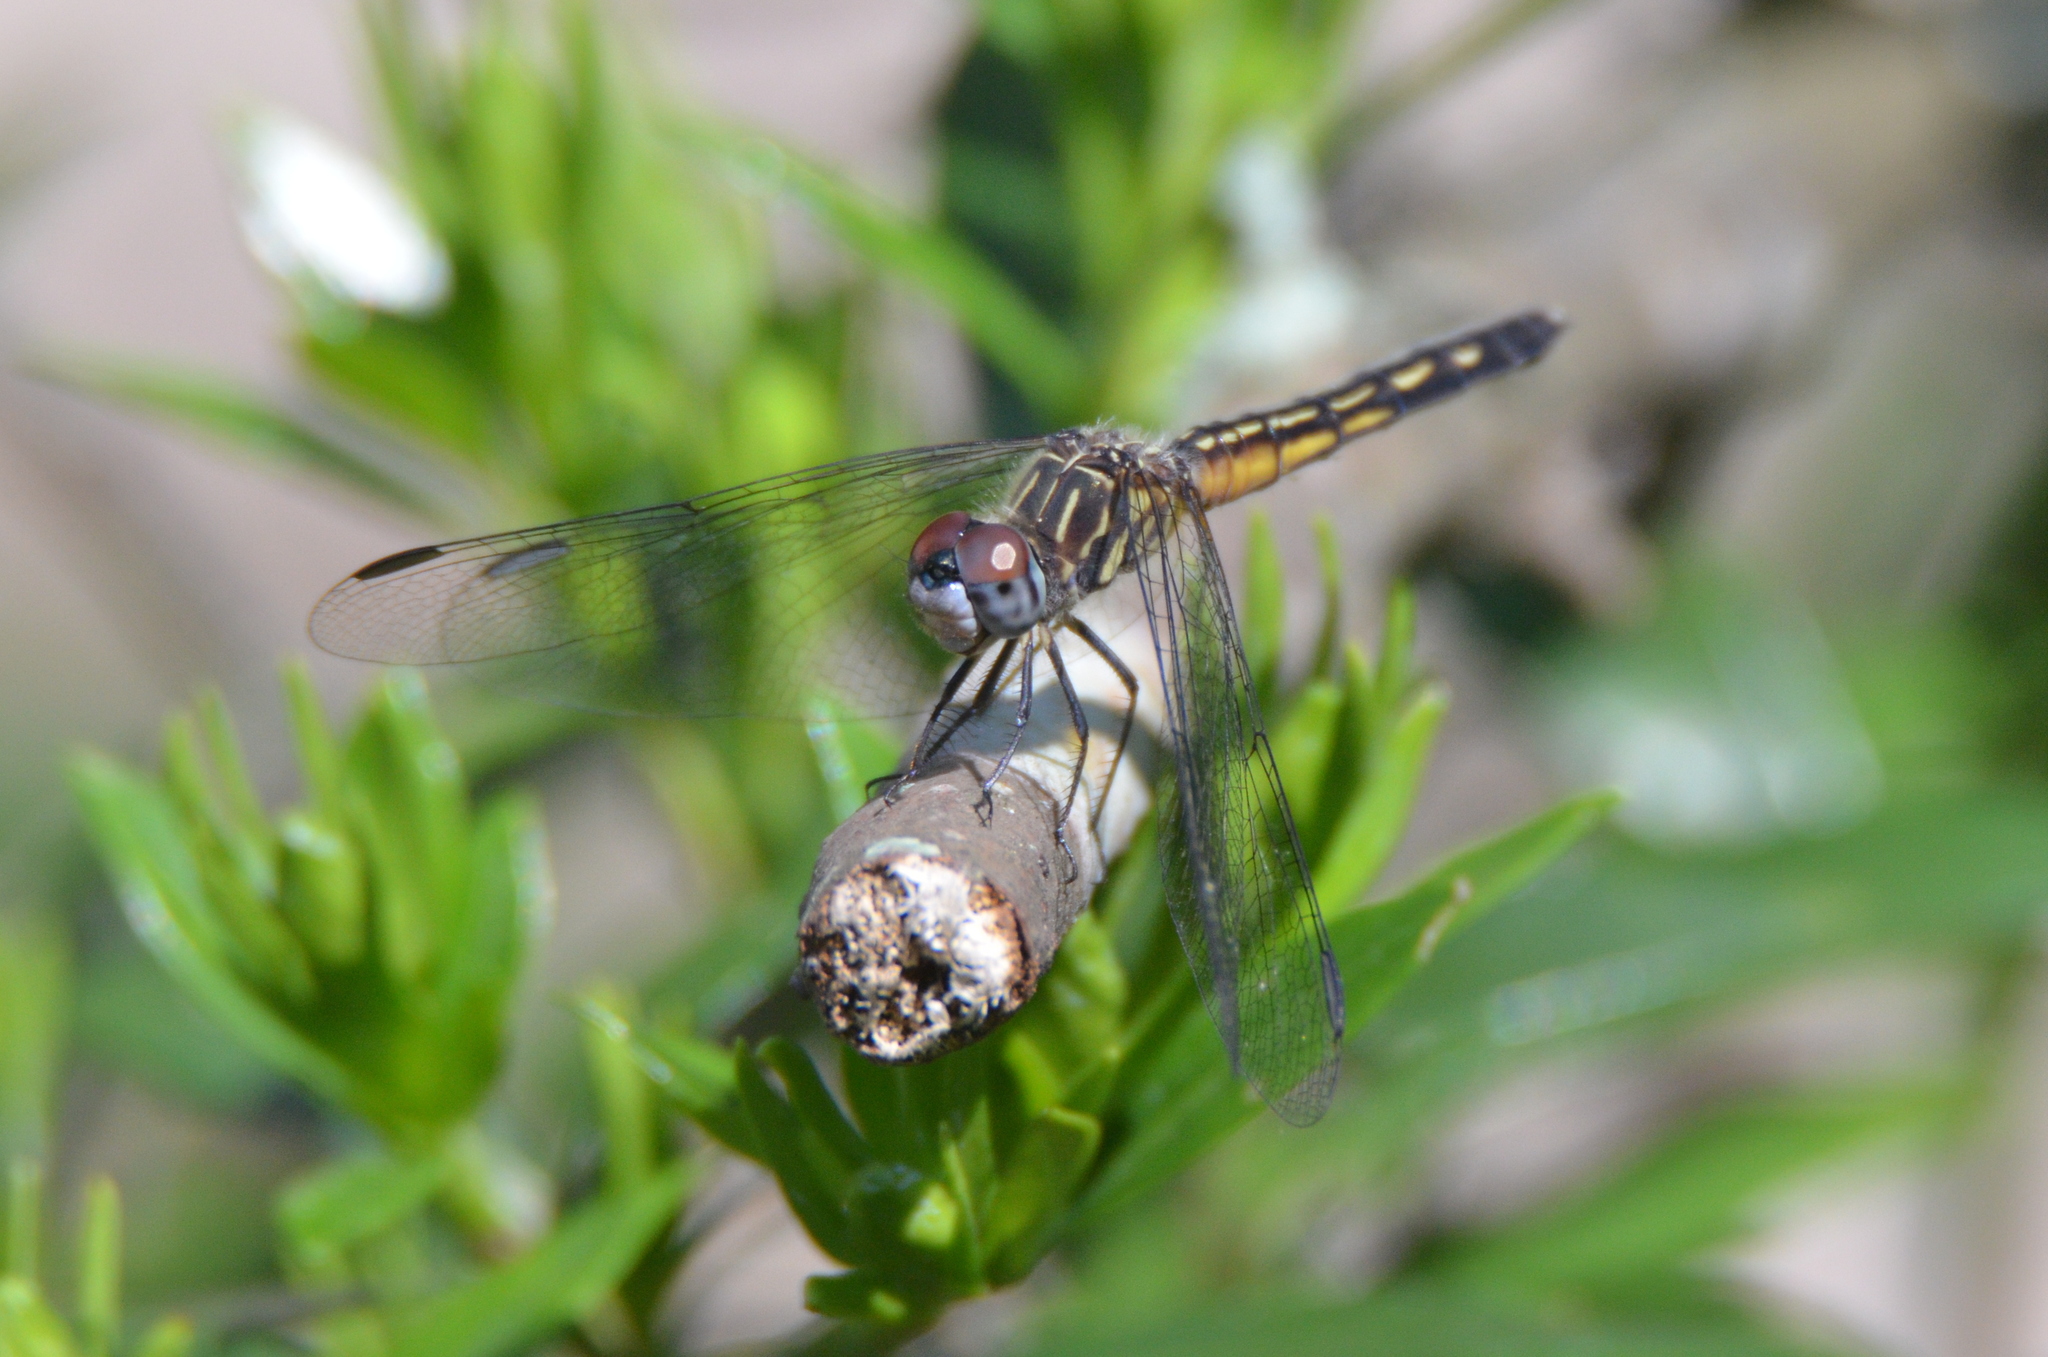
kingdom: Animalia
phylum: Arthropoda
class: Insecta
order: Odonata
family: Libellulidae
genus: Pachydiplax
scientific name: Pachydiplax longipennis
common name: Blue dasher
